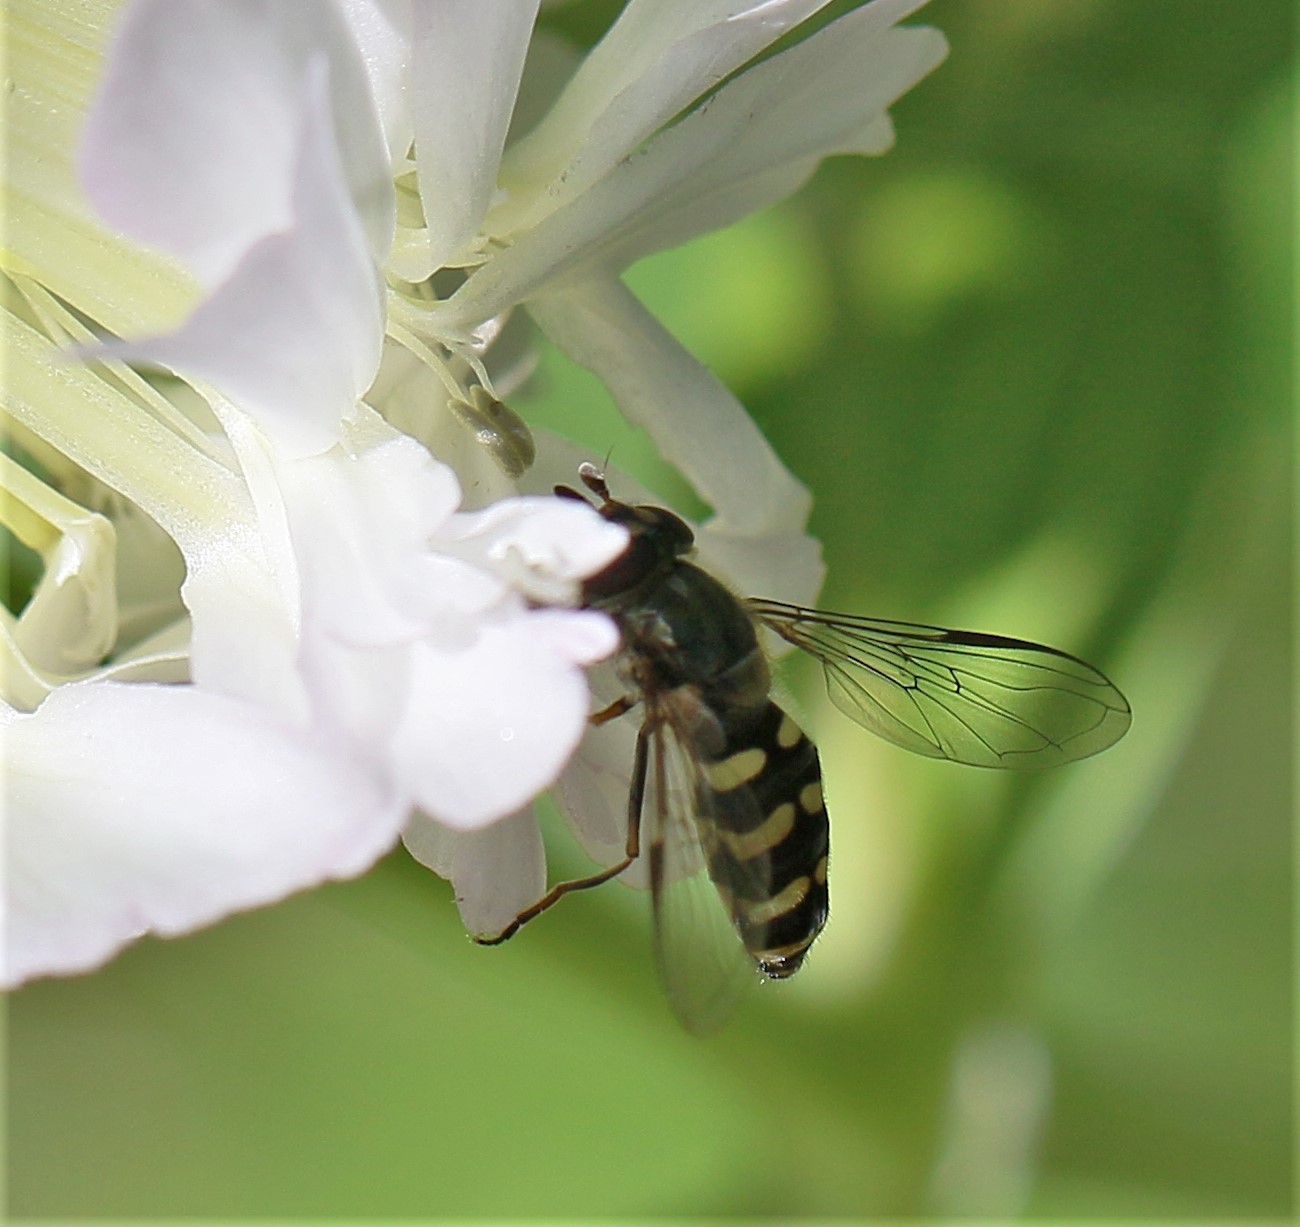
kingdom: Animalia
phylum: Arthropoda
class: Insecta
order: Diptera
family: Syrphidae
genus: Lapposyrphus
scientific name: Lapposyrphus lapponicus
